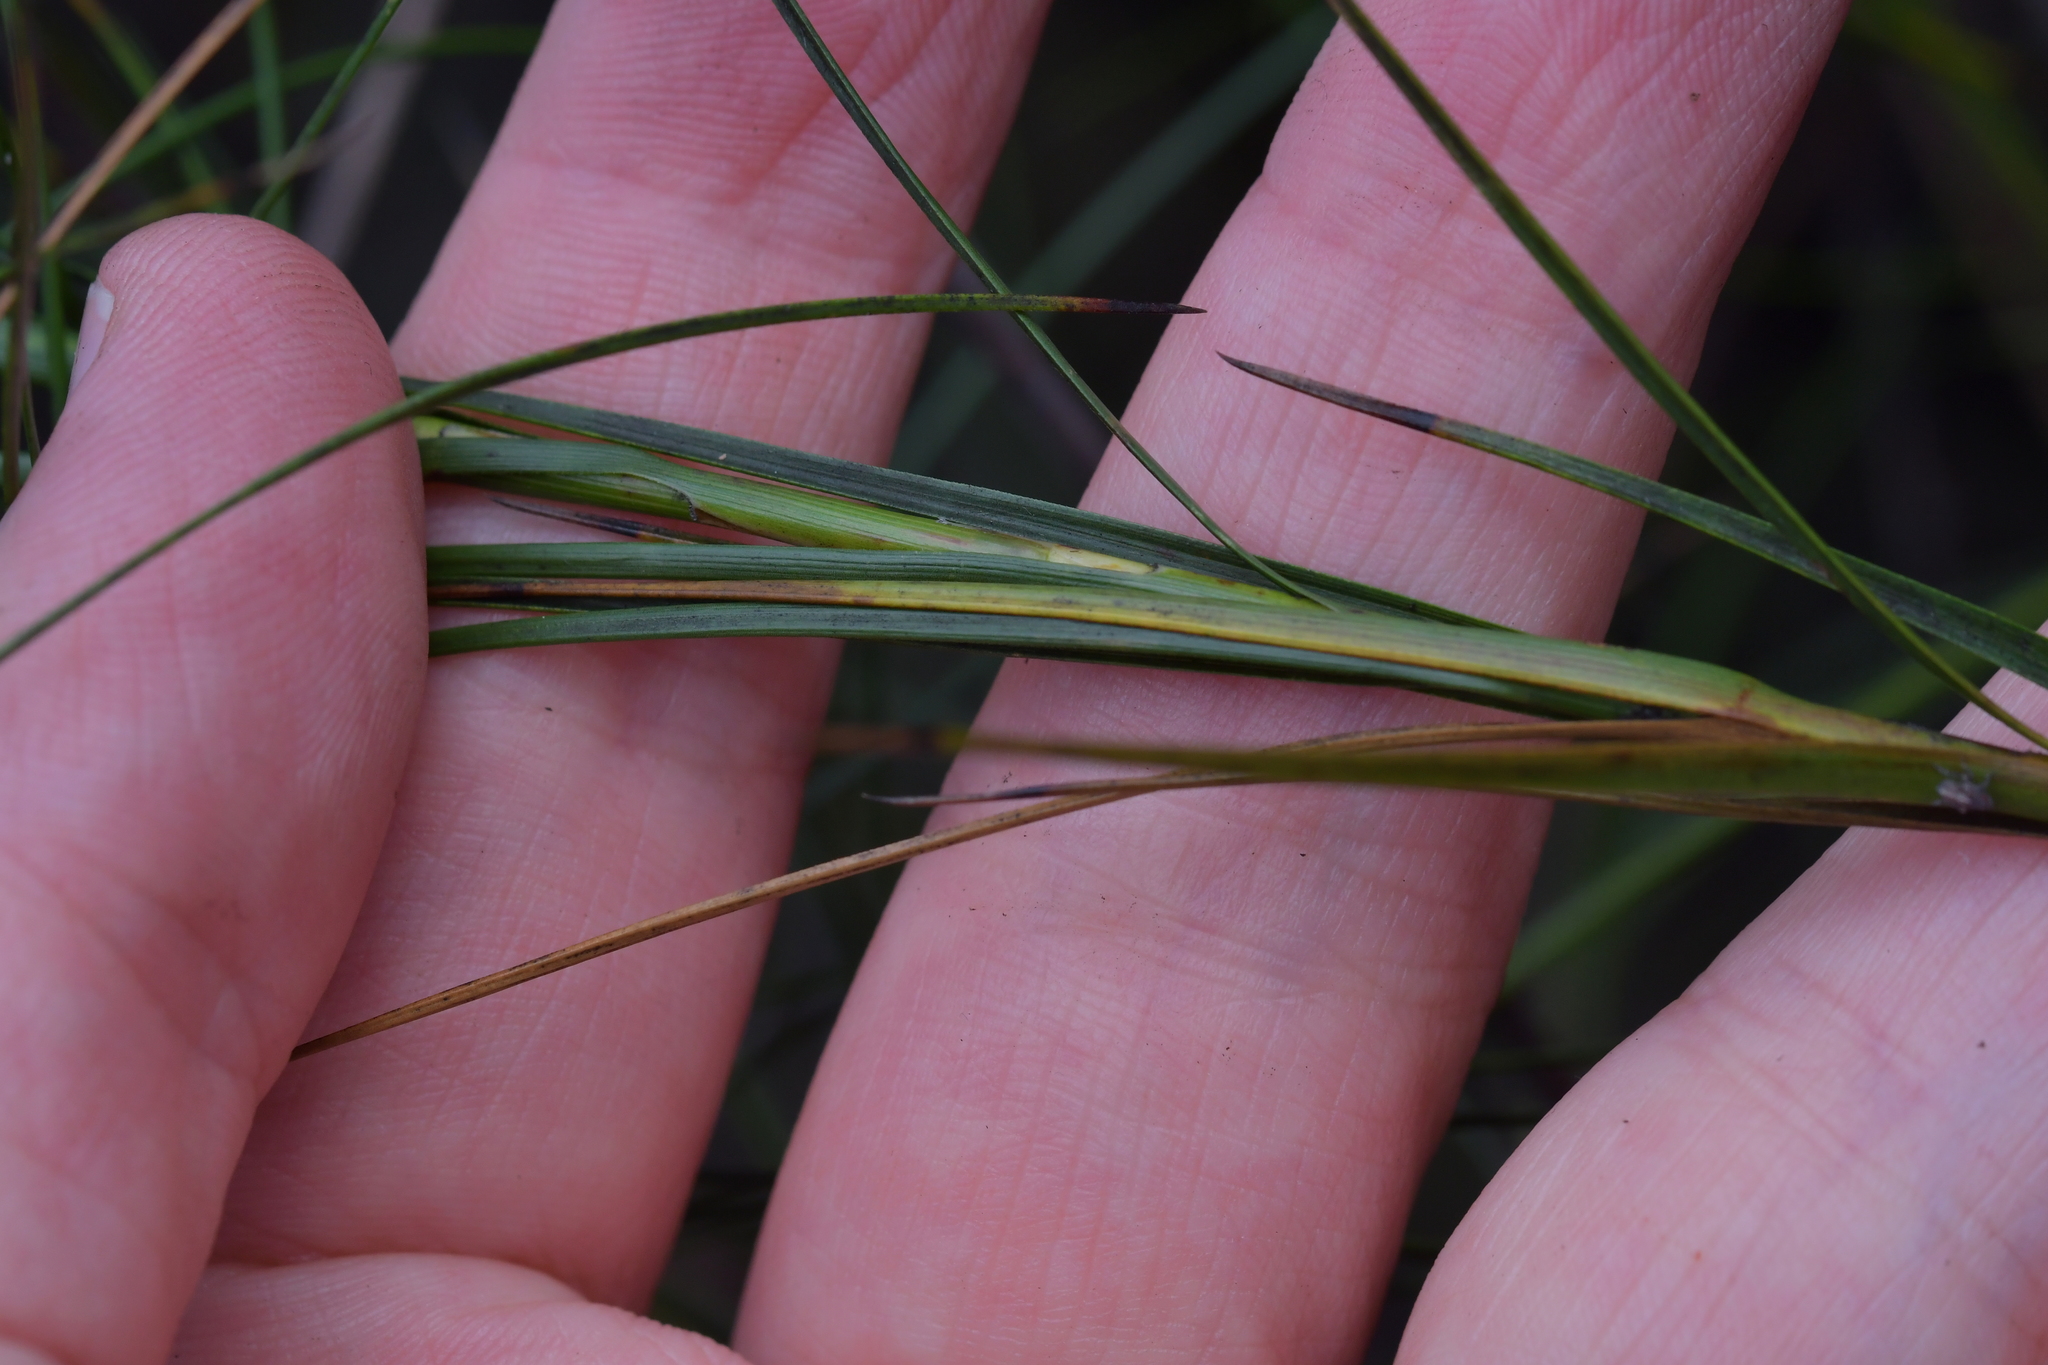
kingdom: Plantae
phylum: Tracheophyta
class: Magnoliopsida
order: Ericales
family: Ericaceae
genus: Dracophyllum
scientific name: Dracophyllum lessonianum
